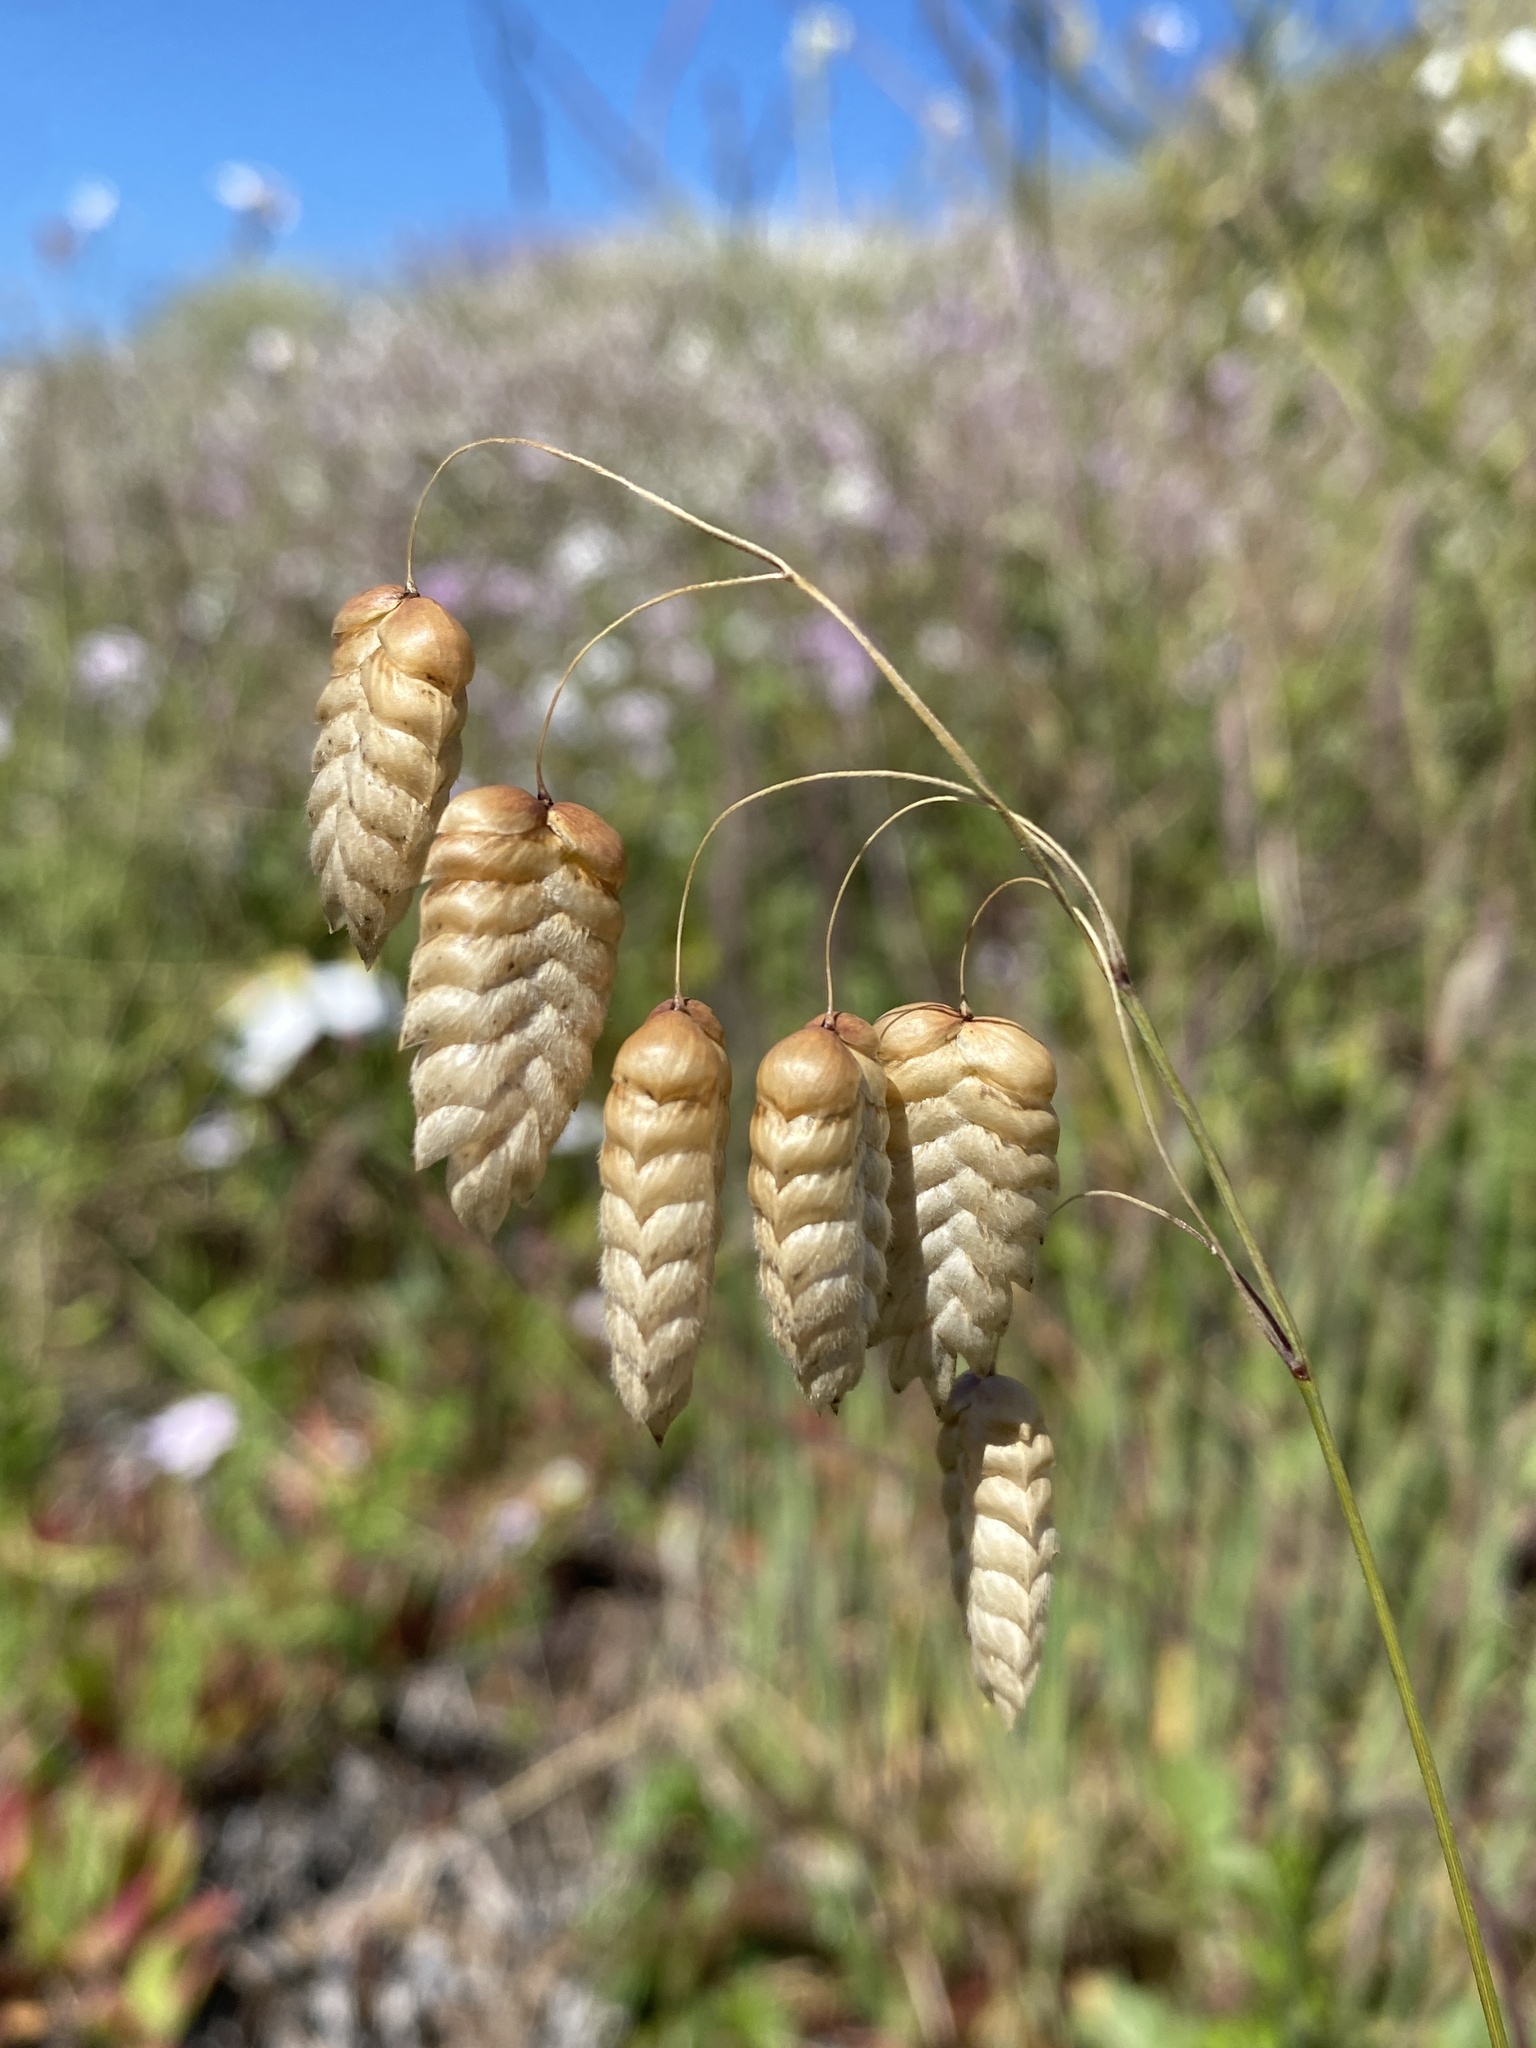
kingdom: Plantae
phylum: Tracheophyta
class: Liliopsida
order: Poales
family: Poaceae
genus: Briza
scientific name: Briza maxima
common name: Big quakinggrass
